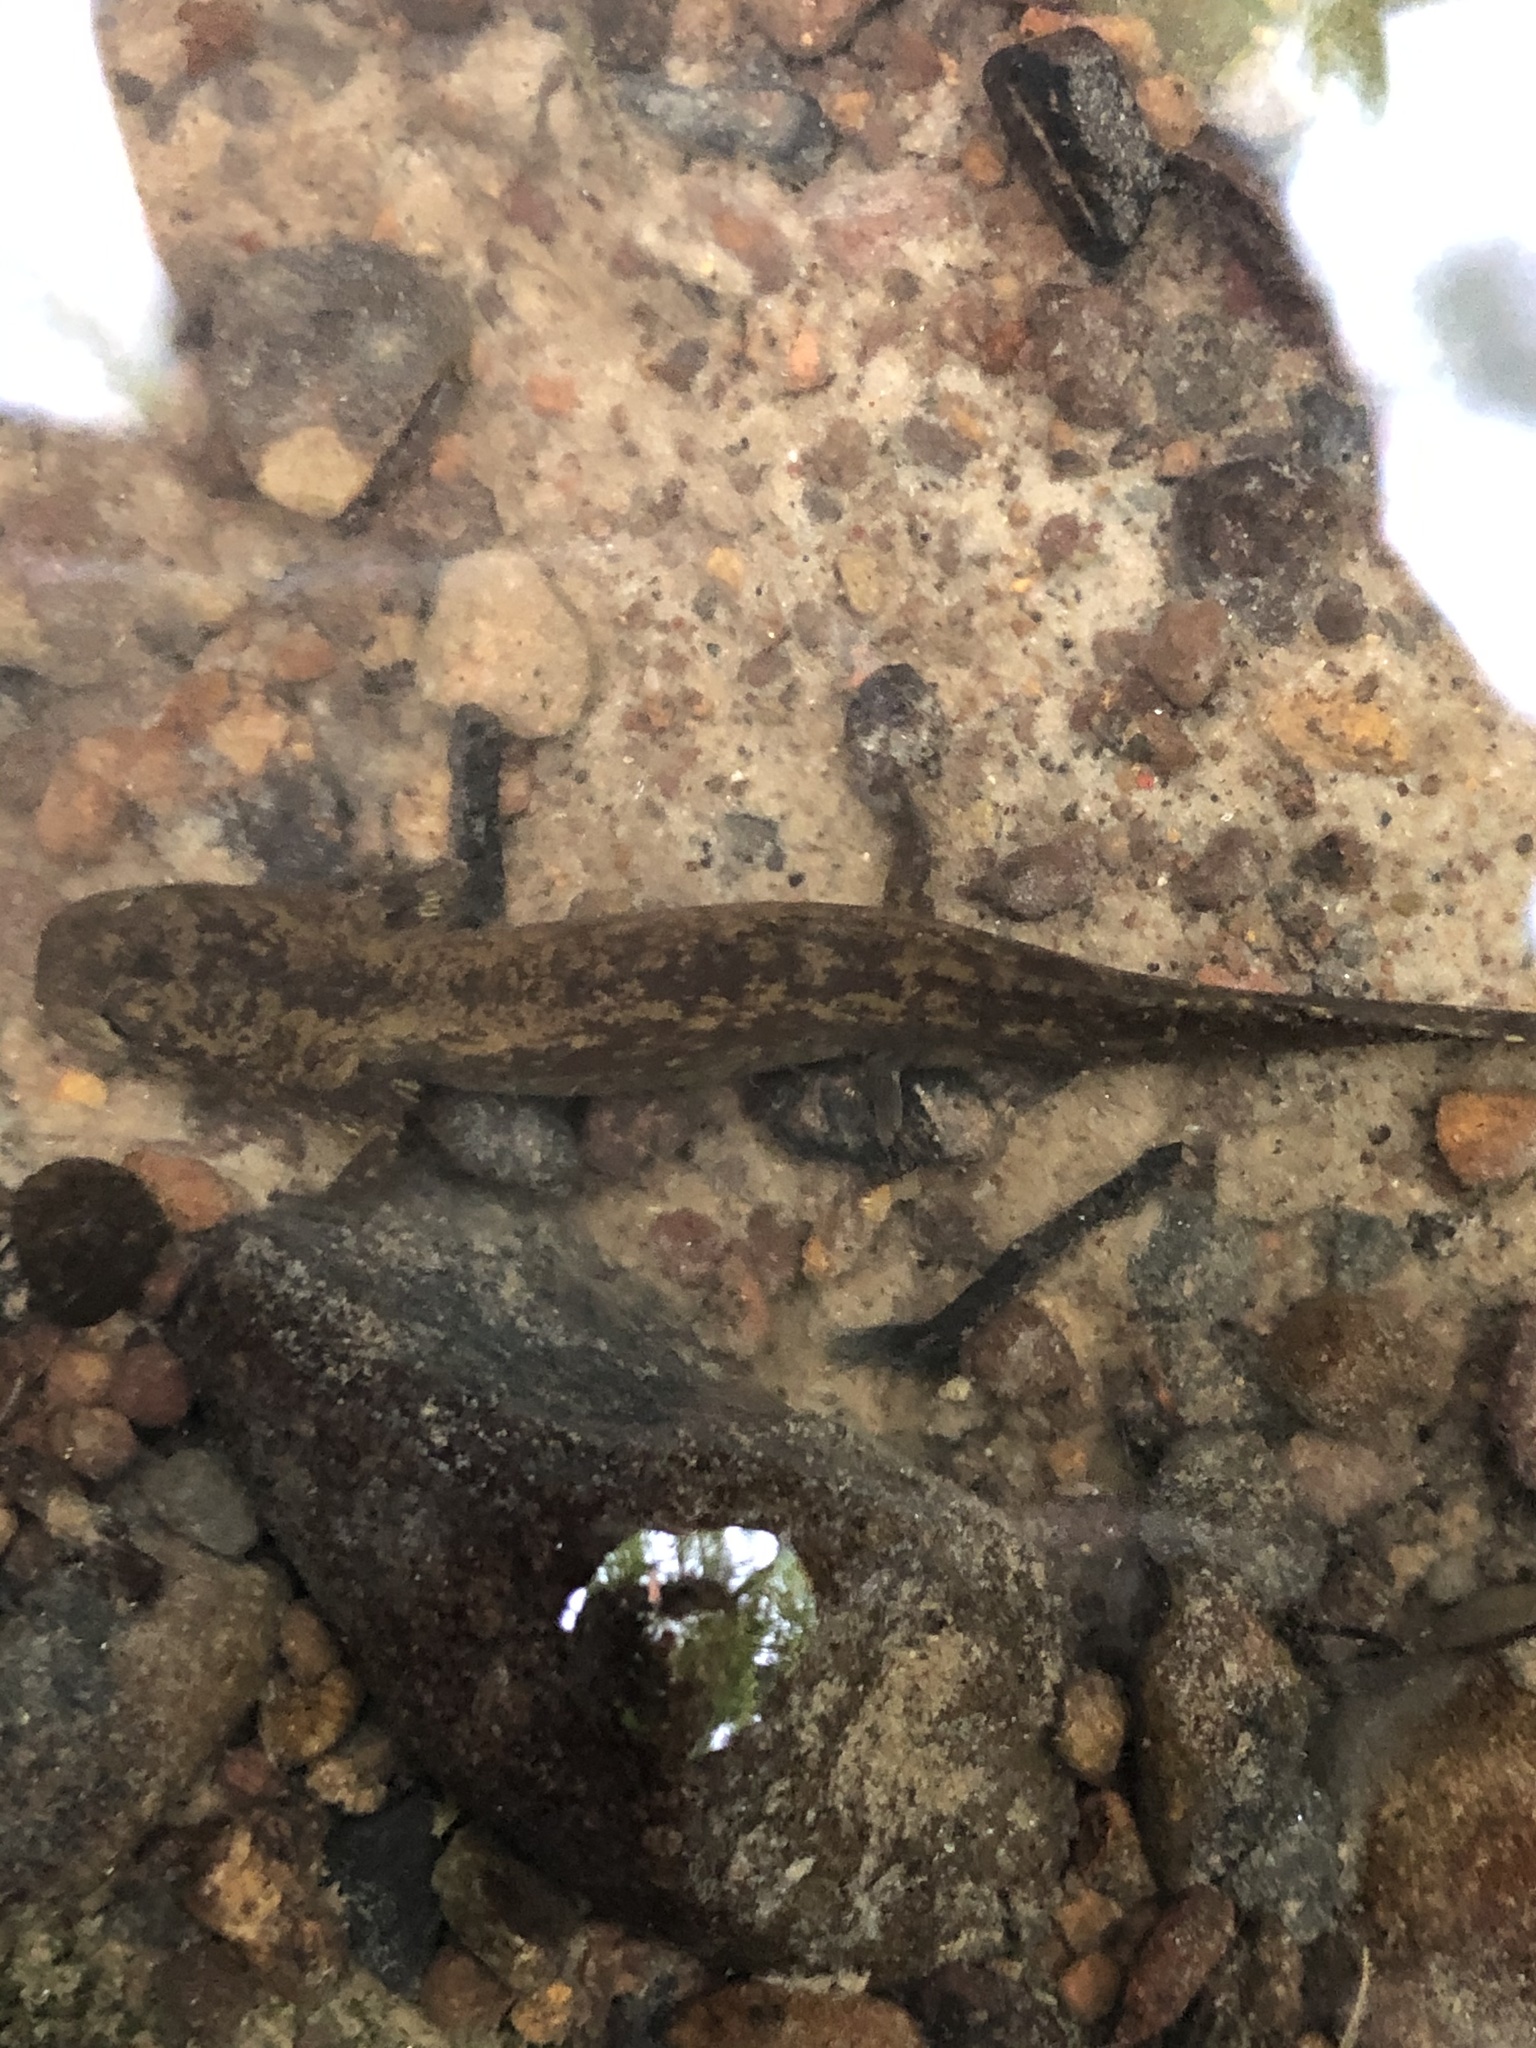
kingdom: Animalia
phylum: Chordata
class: Amphibia
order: Caudata
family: Ambystomatidae
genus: Dicamptodon
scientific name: Dicamptodon tenebrosus
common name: Coastal giant salamander
